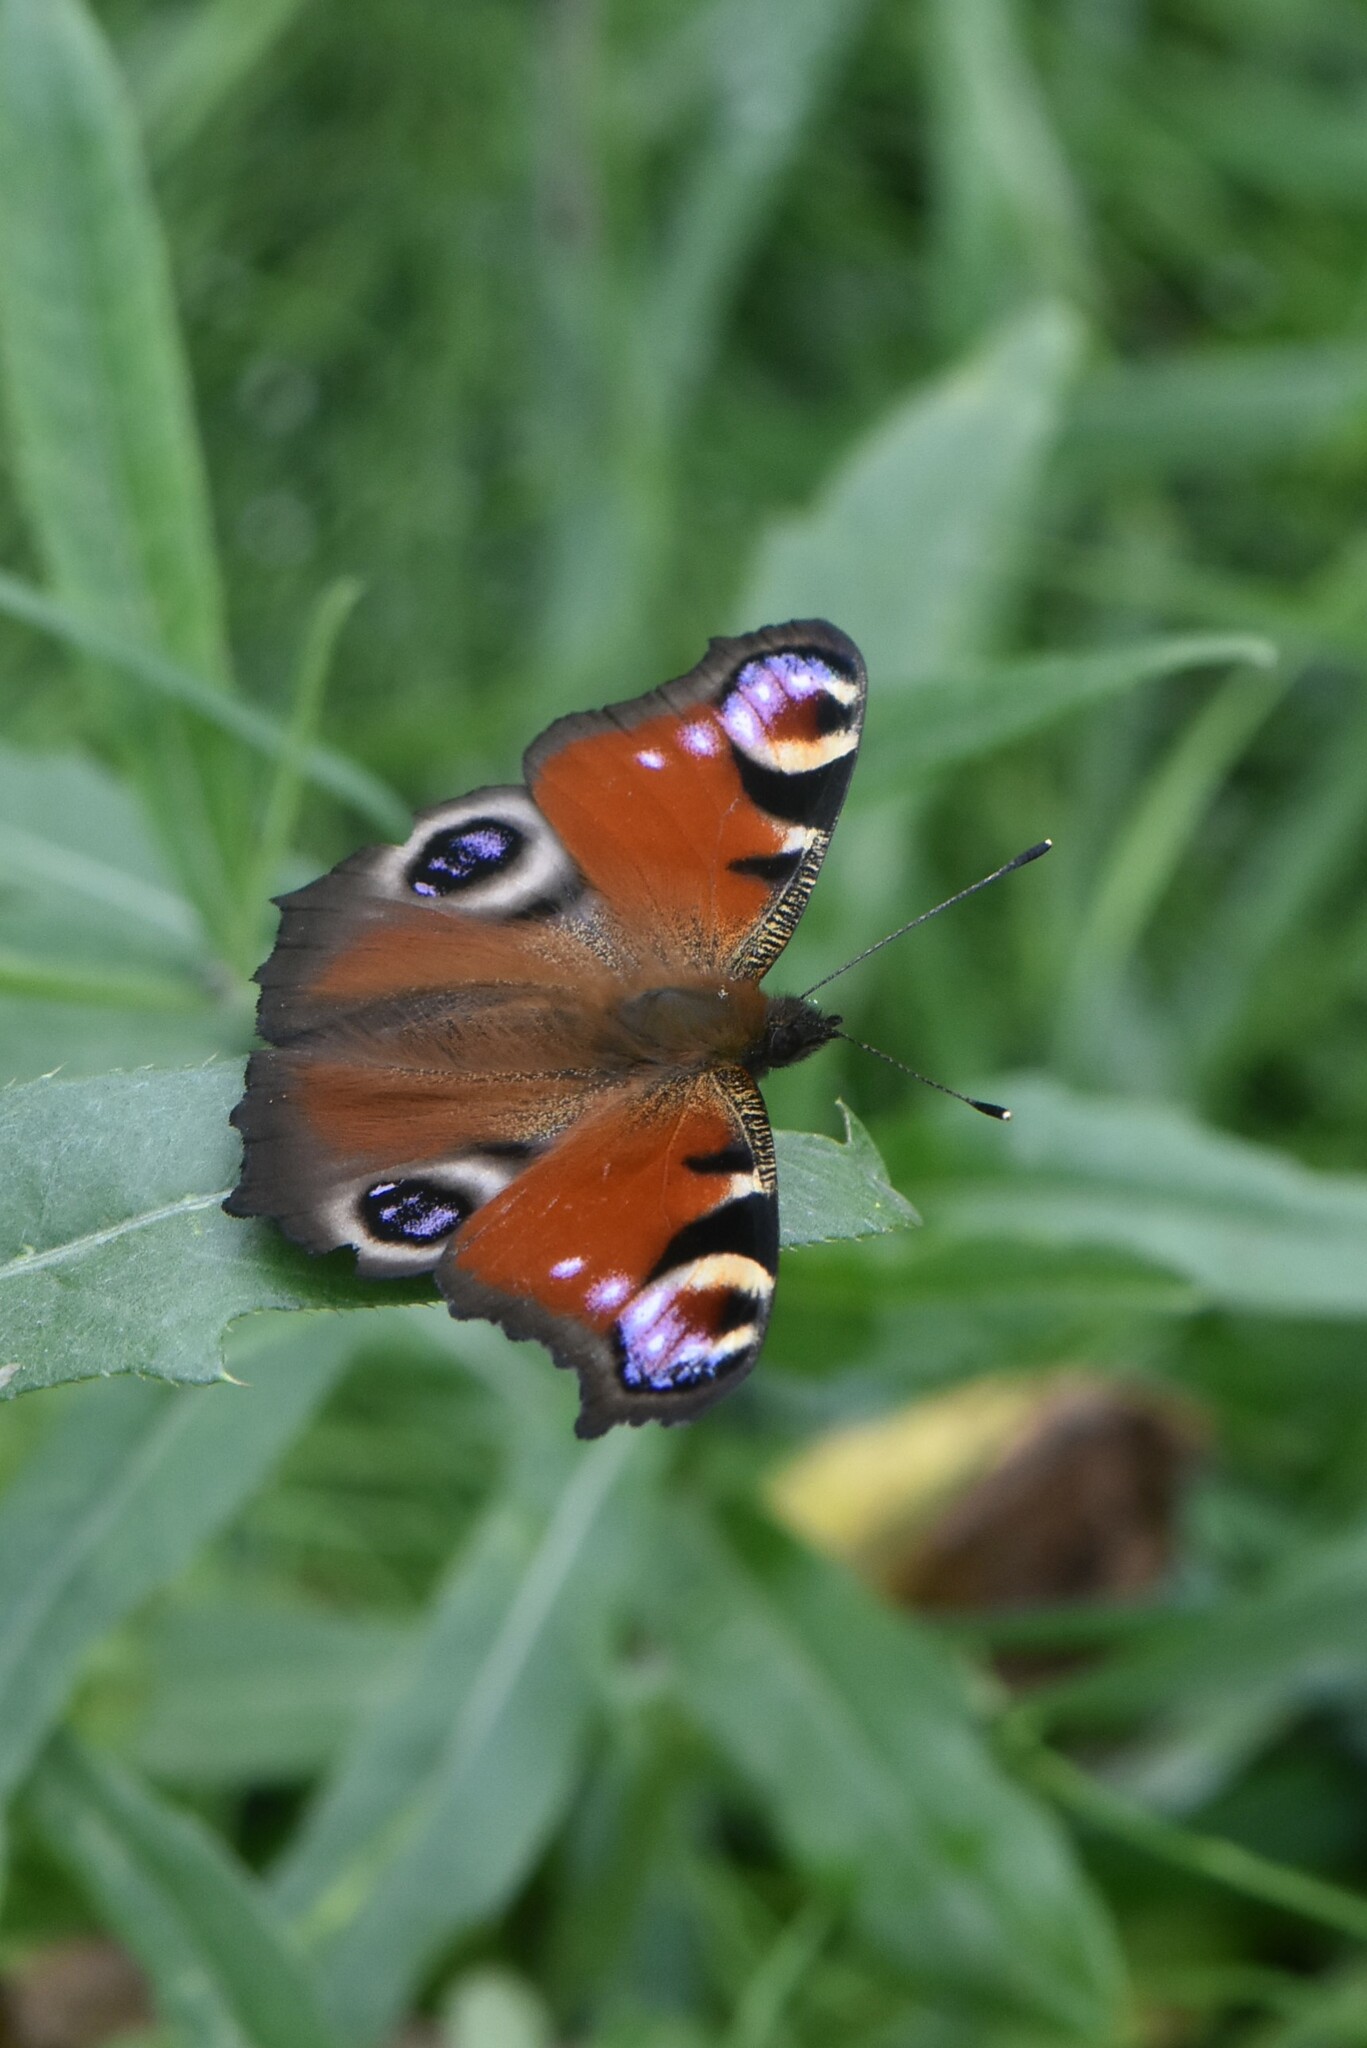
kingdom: Animalia
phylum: Arthropoda
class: Insecta
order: Lepidoptera
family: Nymphalidae
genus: Aglais
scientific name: Aglais io
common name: Peacock
